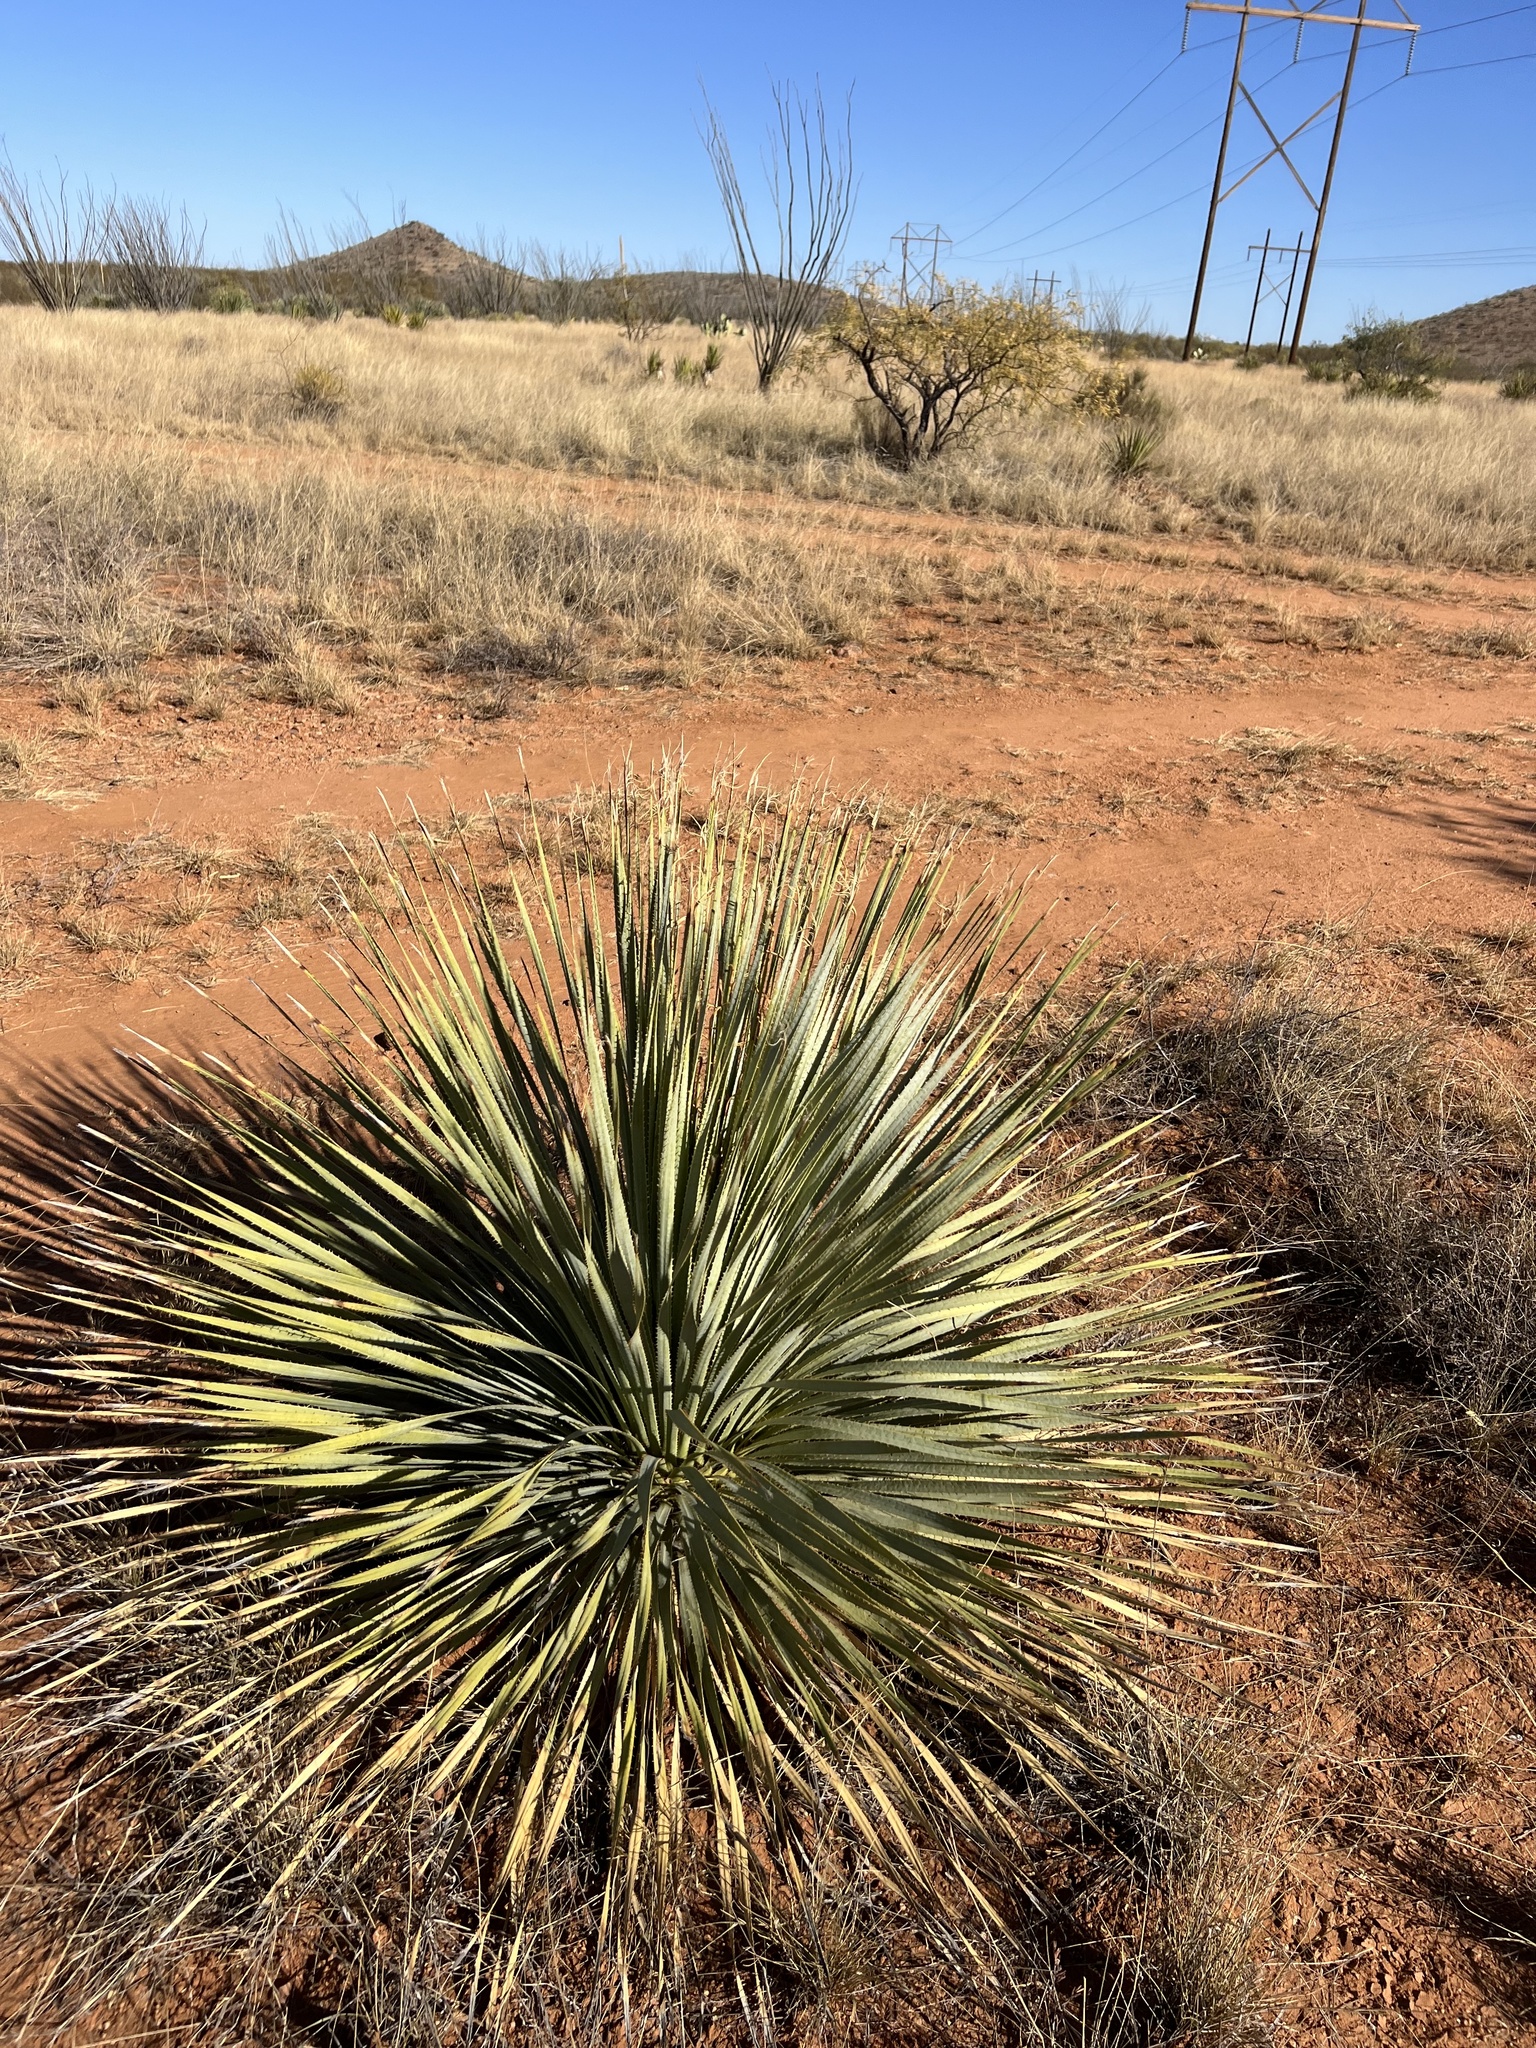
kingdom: Plantae
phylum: Tracheophyta
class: Liliopsida
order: Asparagales
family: Asparagaceae
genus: Dasylirion
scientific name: Dasylirion wheeleri
